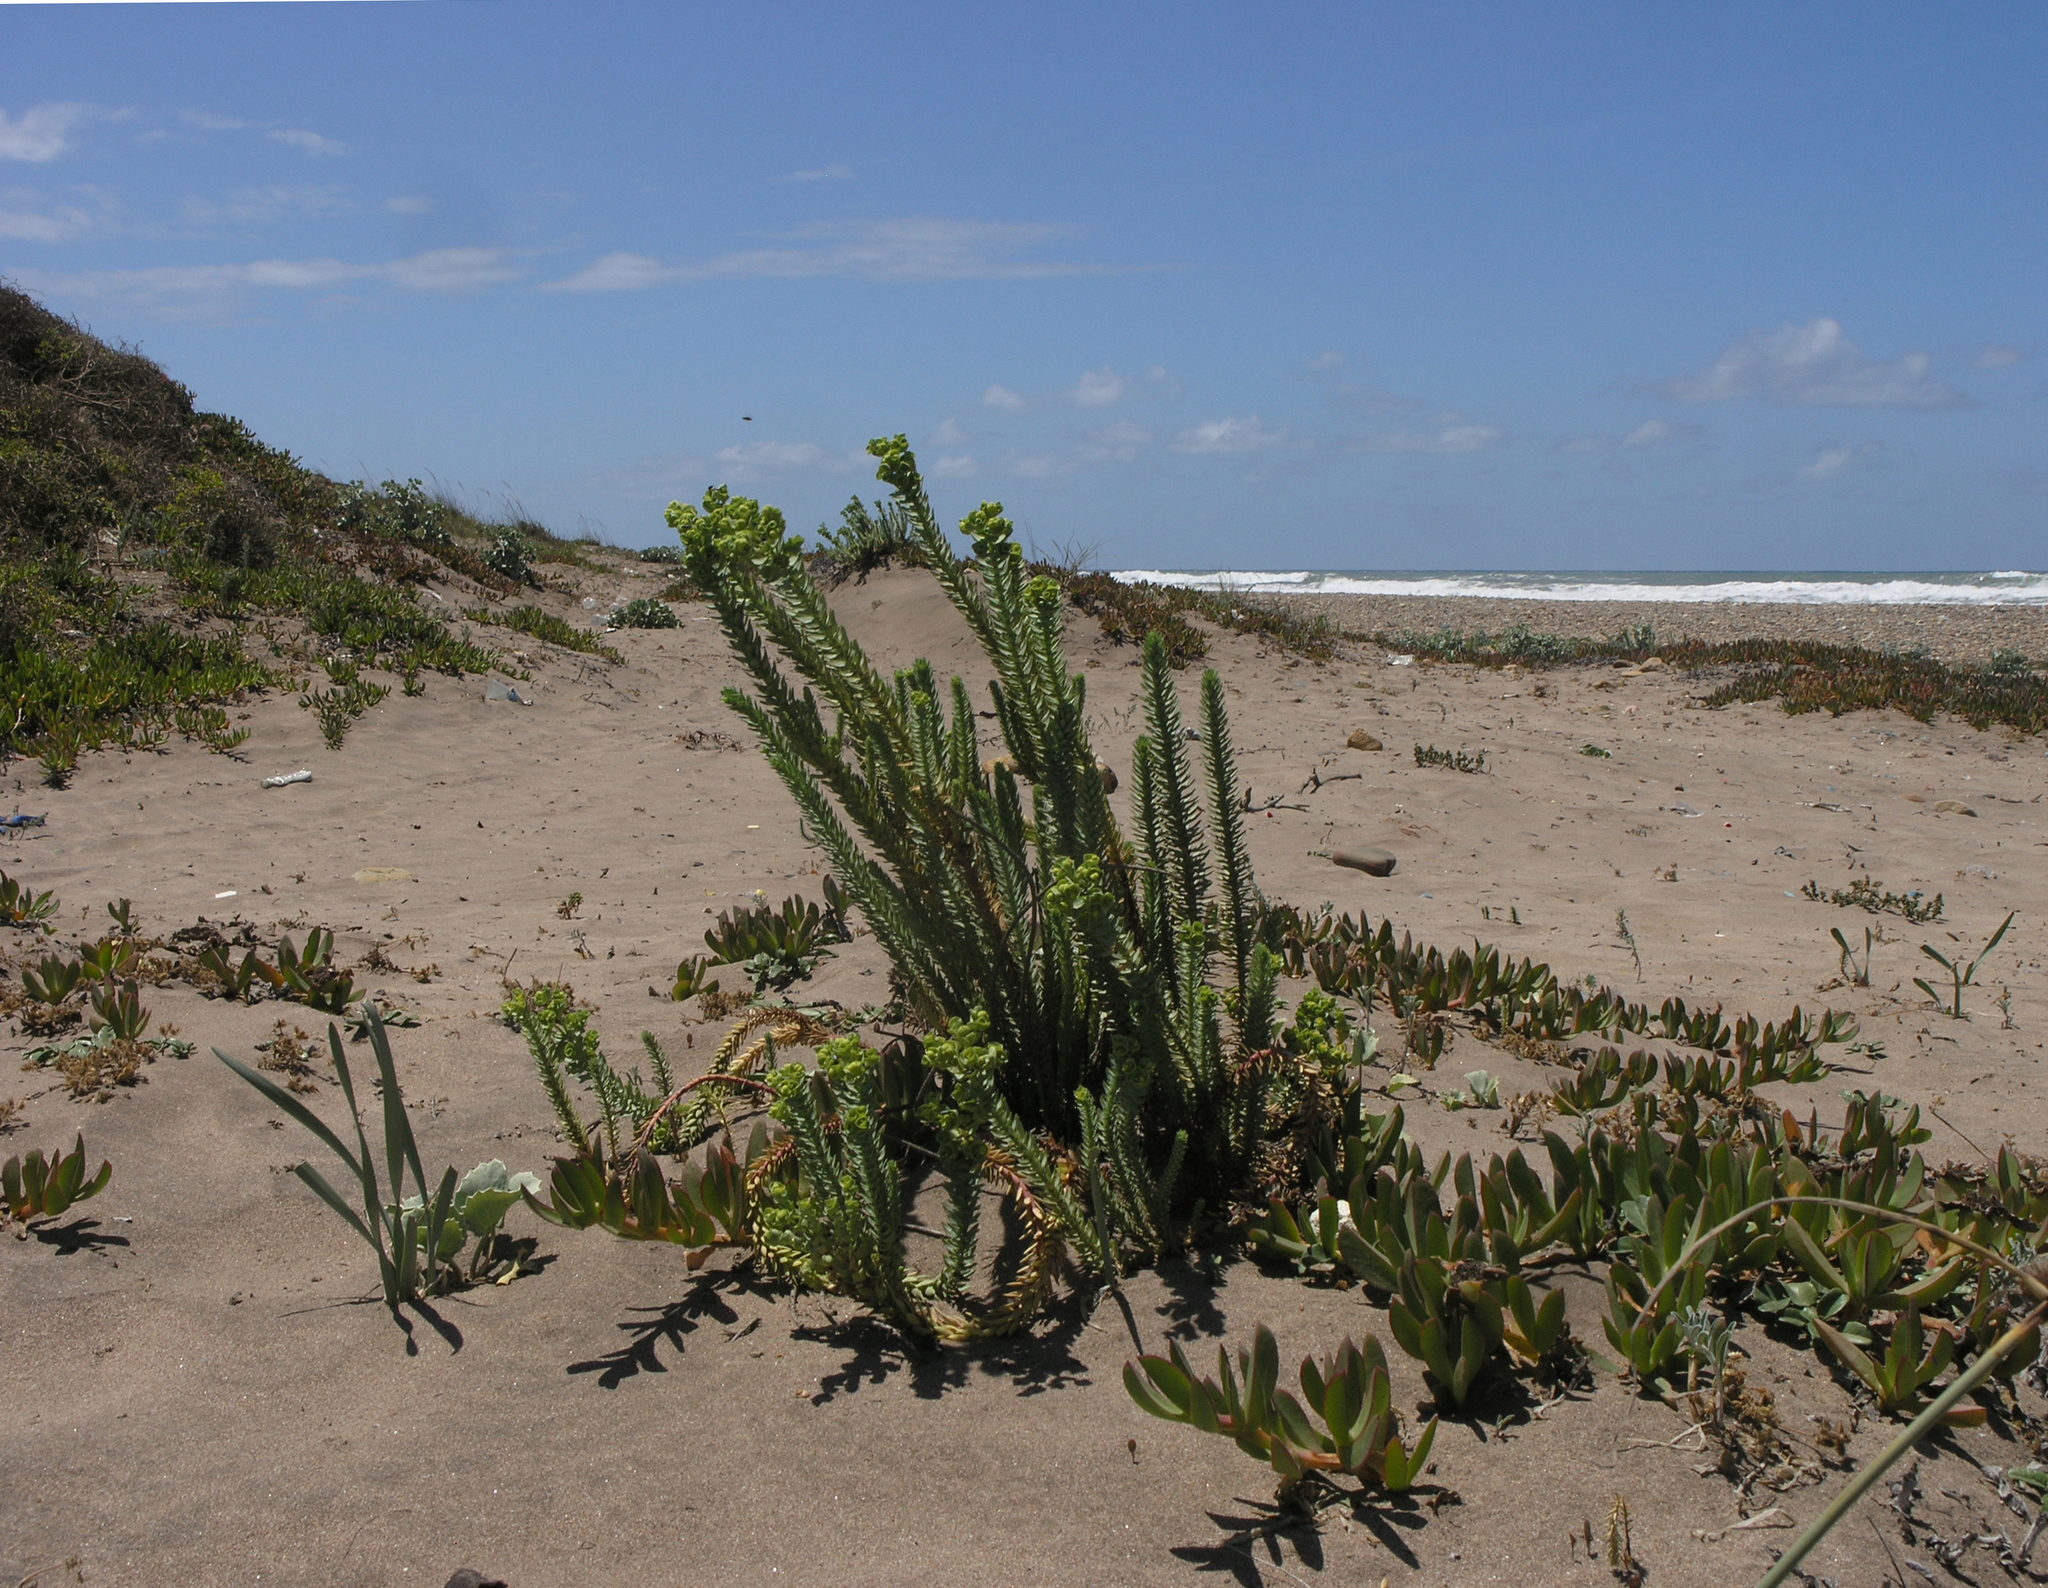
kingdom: Plantae
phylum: Tracheophyta
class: Magnoliopsida
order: Malpighiales
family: Euphorbiaceae
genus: Euphorbia
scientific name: Euphorbia paralias
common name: Sea spurge
